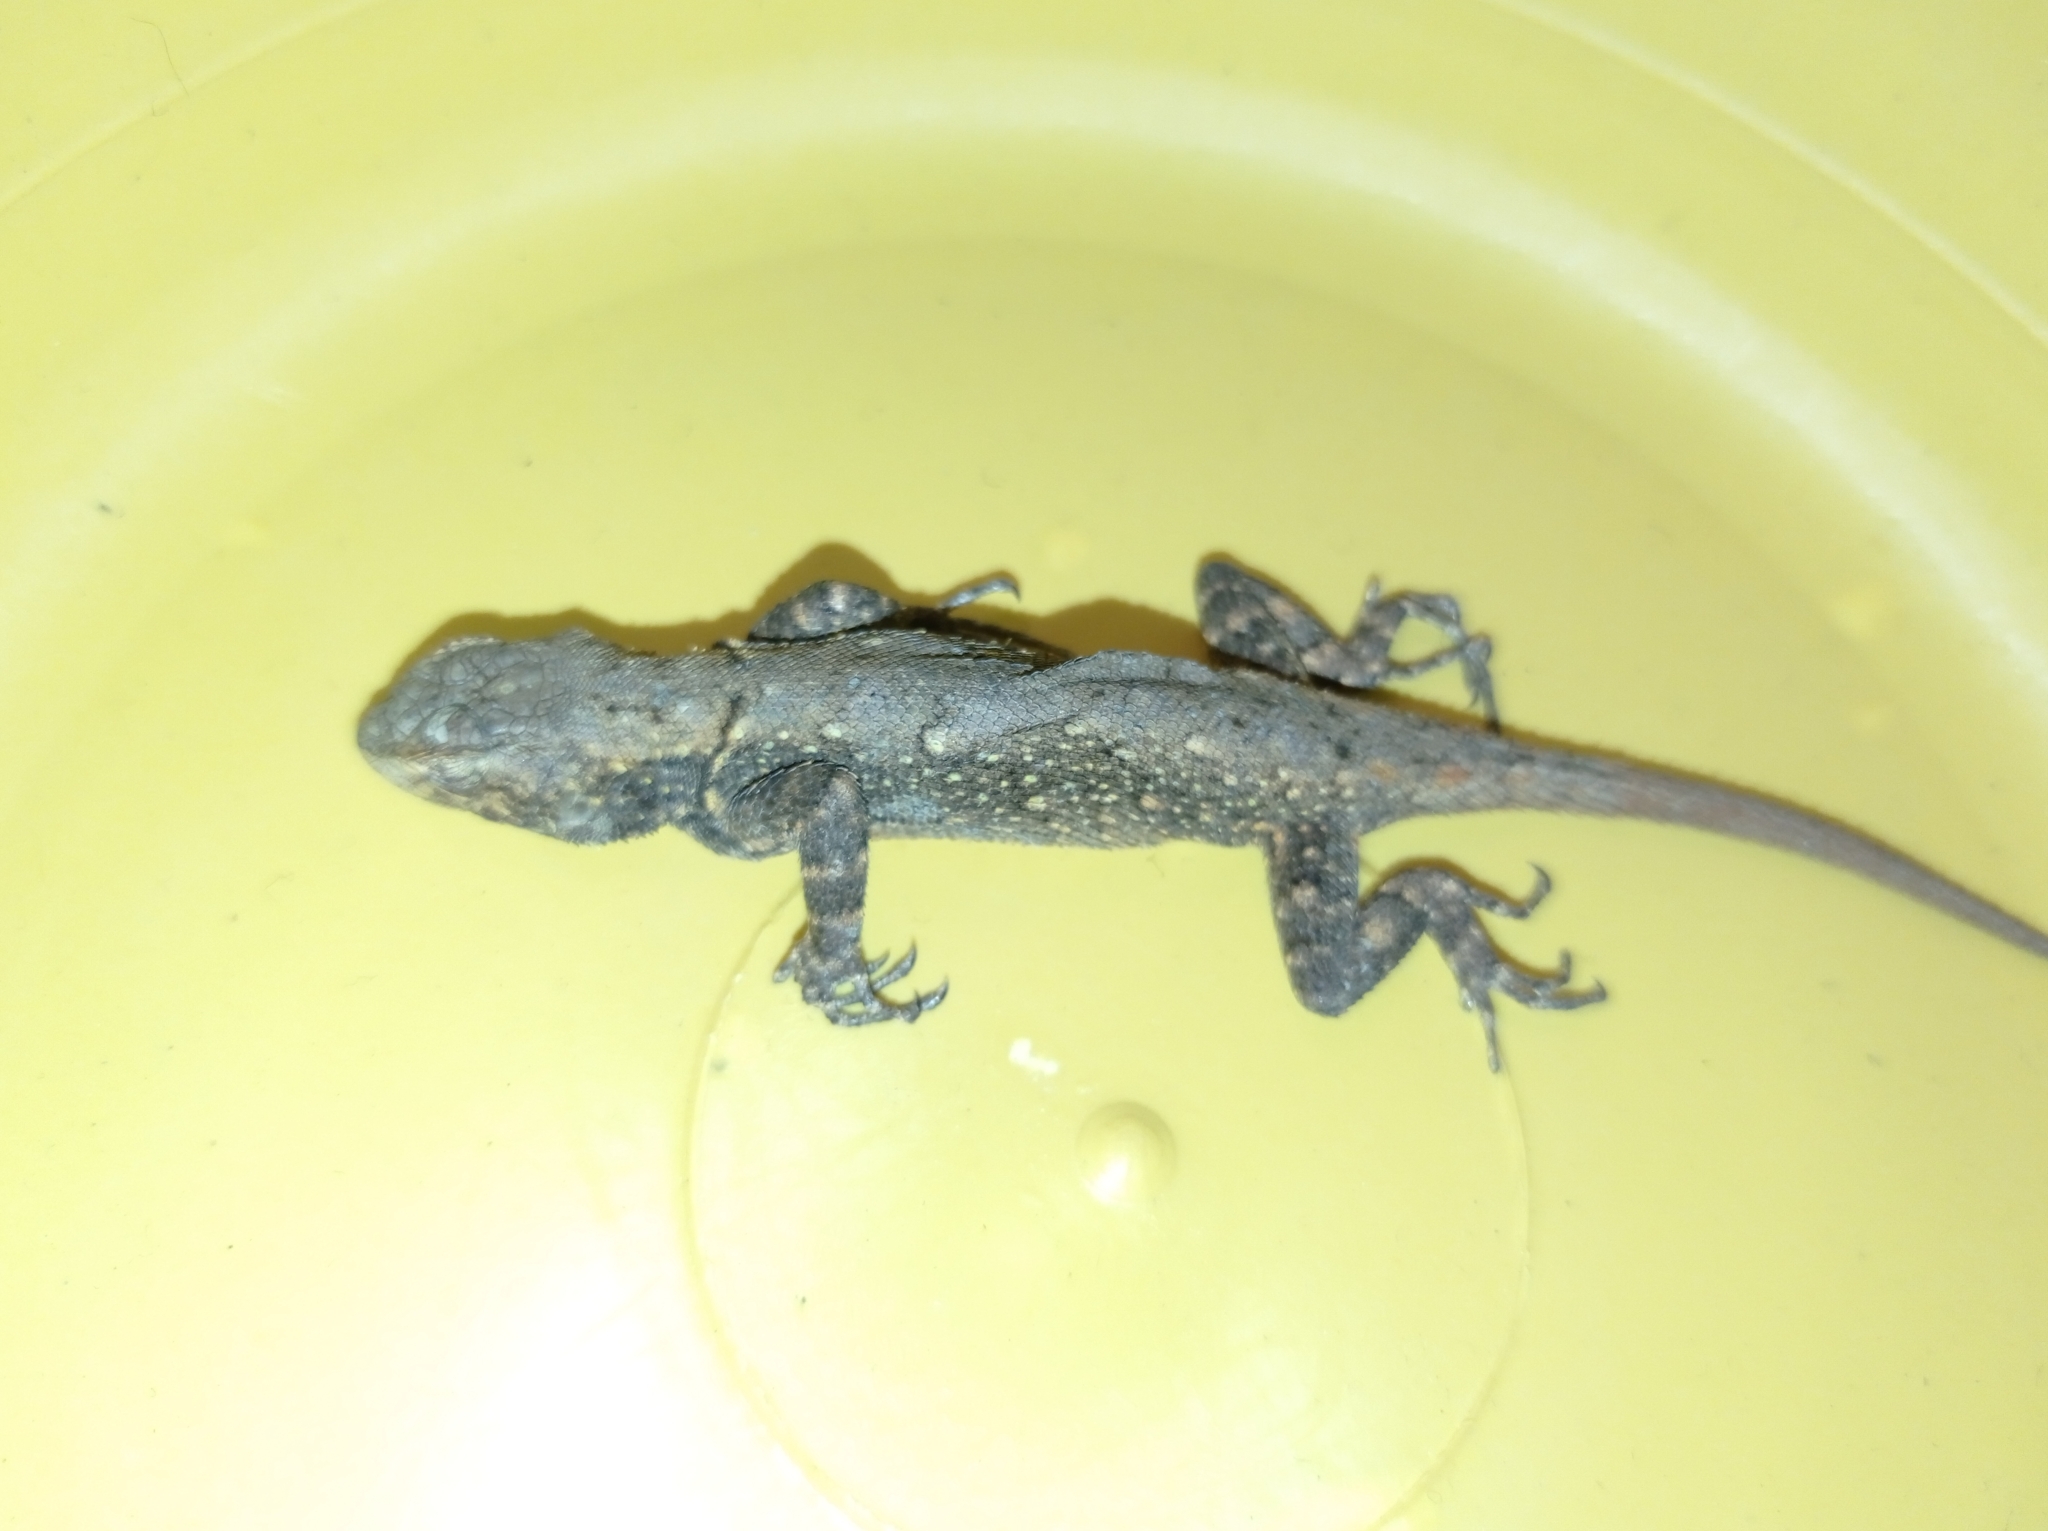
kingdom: Animalia
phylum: Chordata
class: Squamata
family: Phrynosomatidae
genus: Sceloporus
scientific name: Sceloporus grammicus
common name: Mesquite lizard
